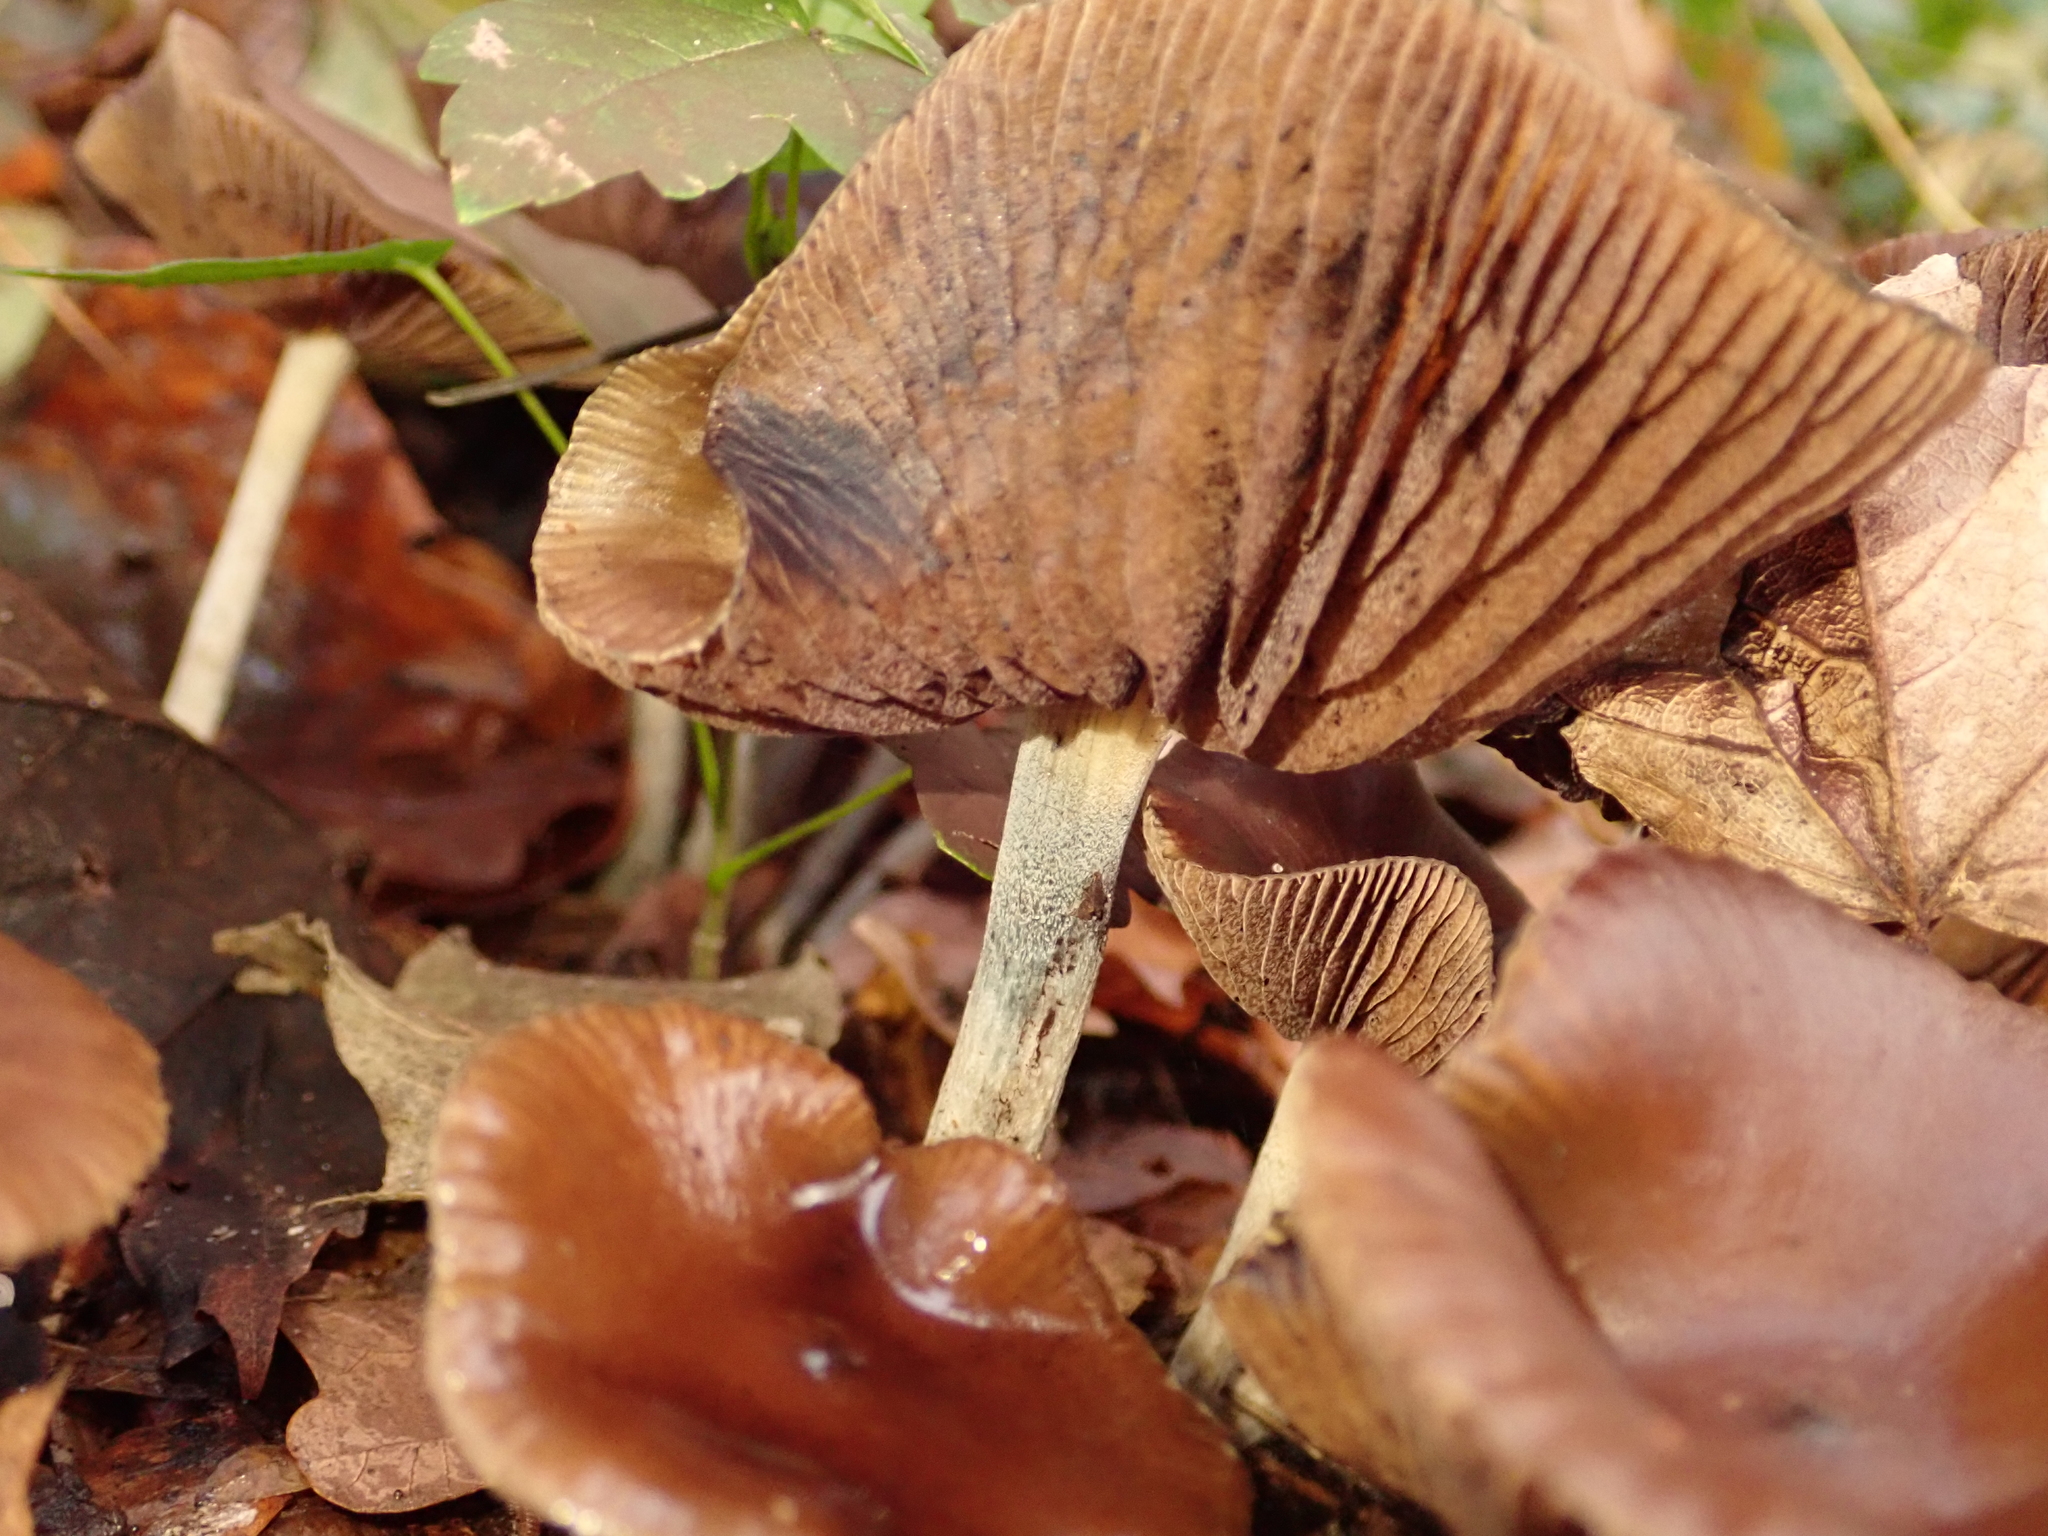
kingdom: Fungi
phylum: Basidiomycota
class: Agaricomycetes
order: Agaricales
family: Hymenogastraceae
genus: Psilocybe
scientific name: Psilocybe cyanescens
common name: Blueleg brownie
